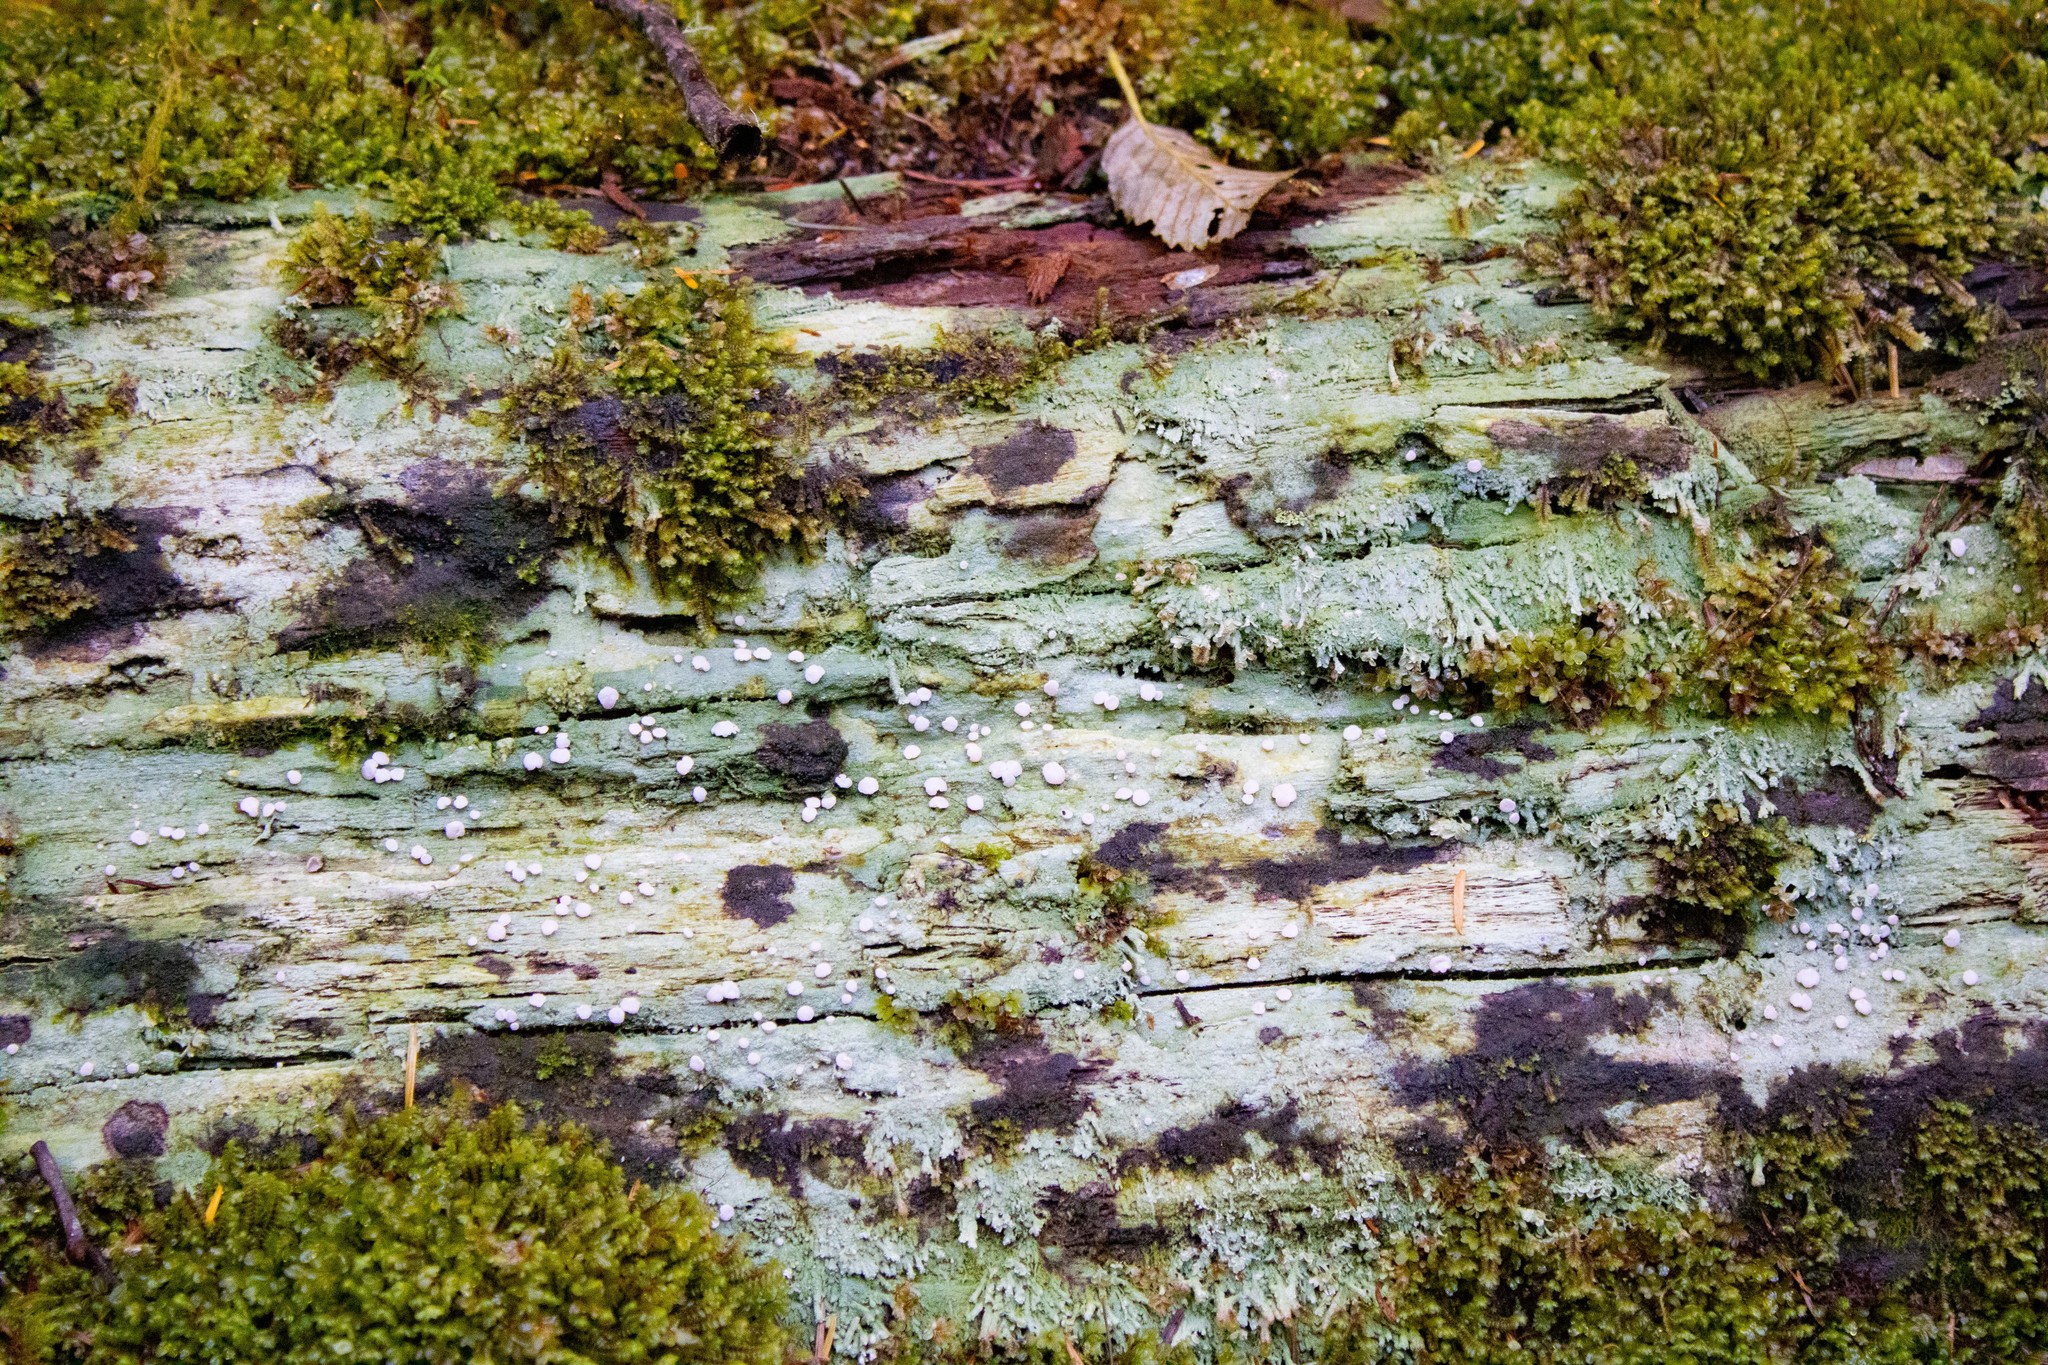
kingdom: Fungi
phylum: Ascomycota
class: Lecanoromycetes
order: Pertusariales
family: Icmadophilaceae
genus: Icmadophila
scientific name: Icmadophila ericetorum
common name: Candy lichen
